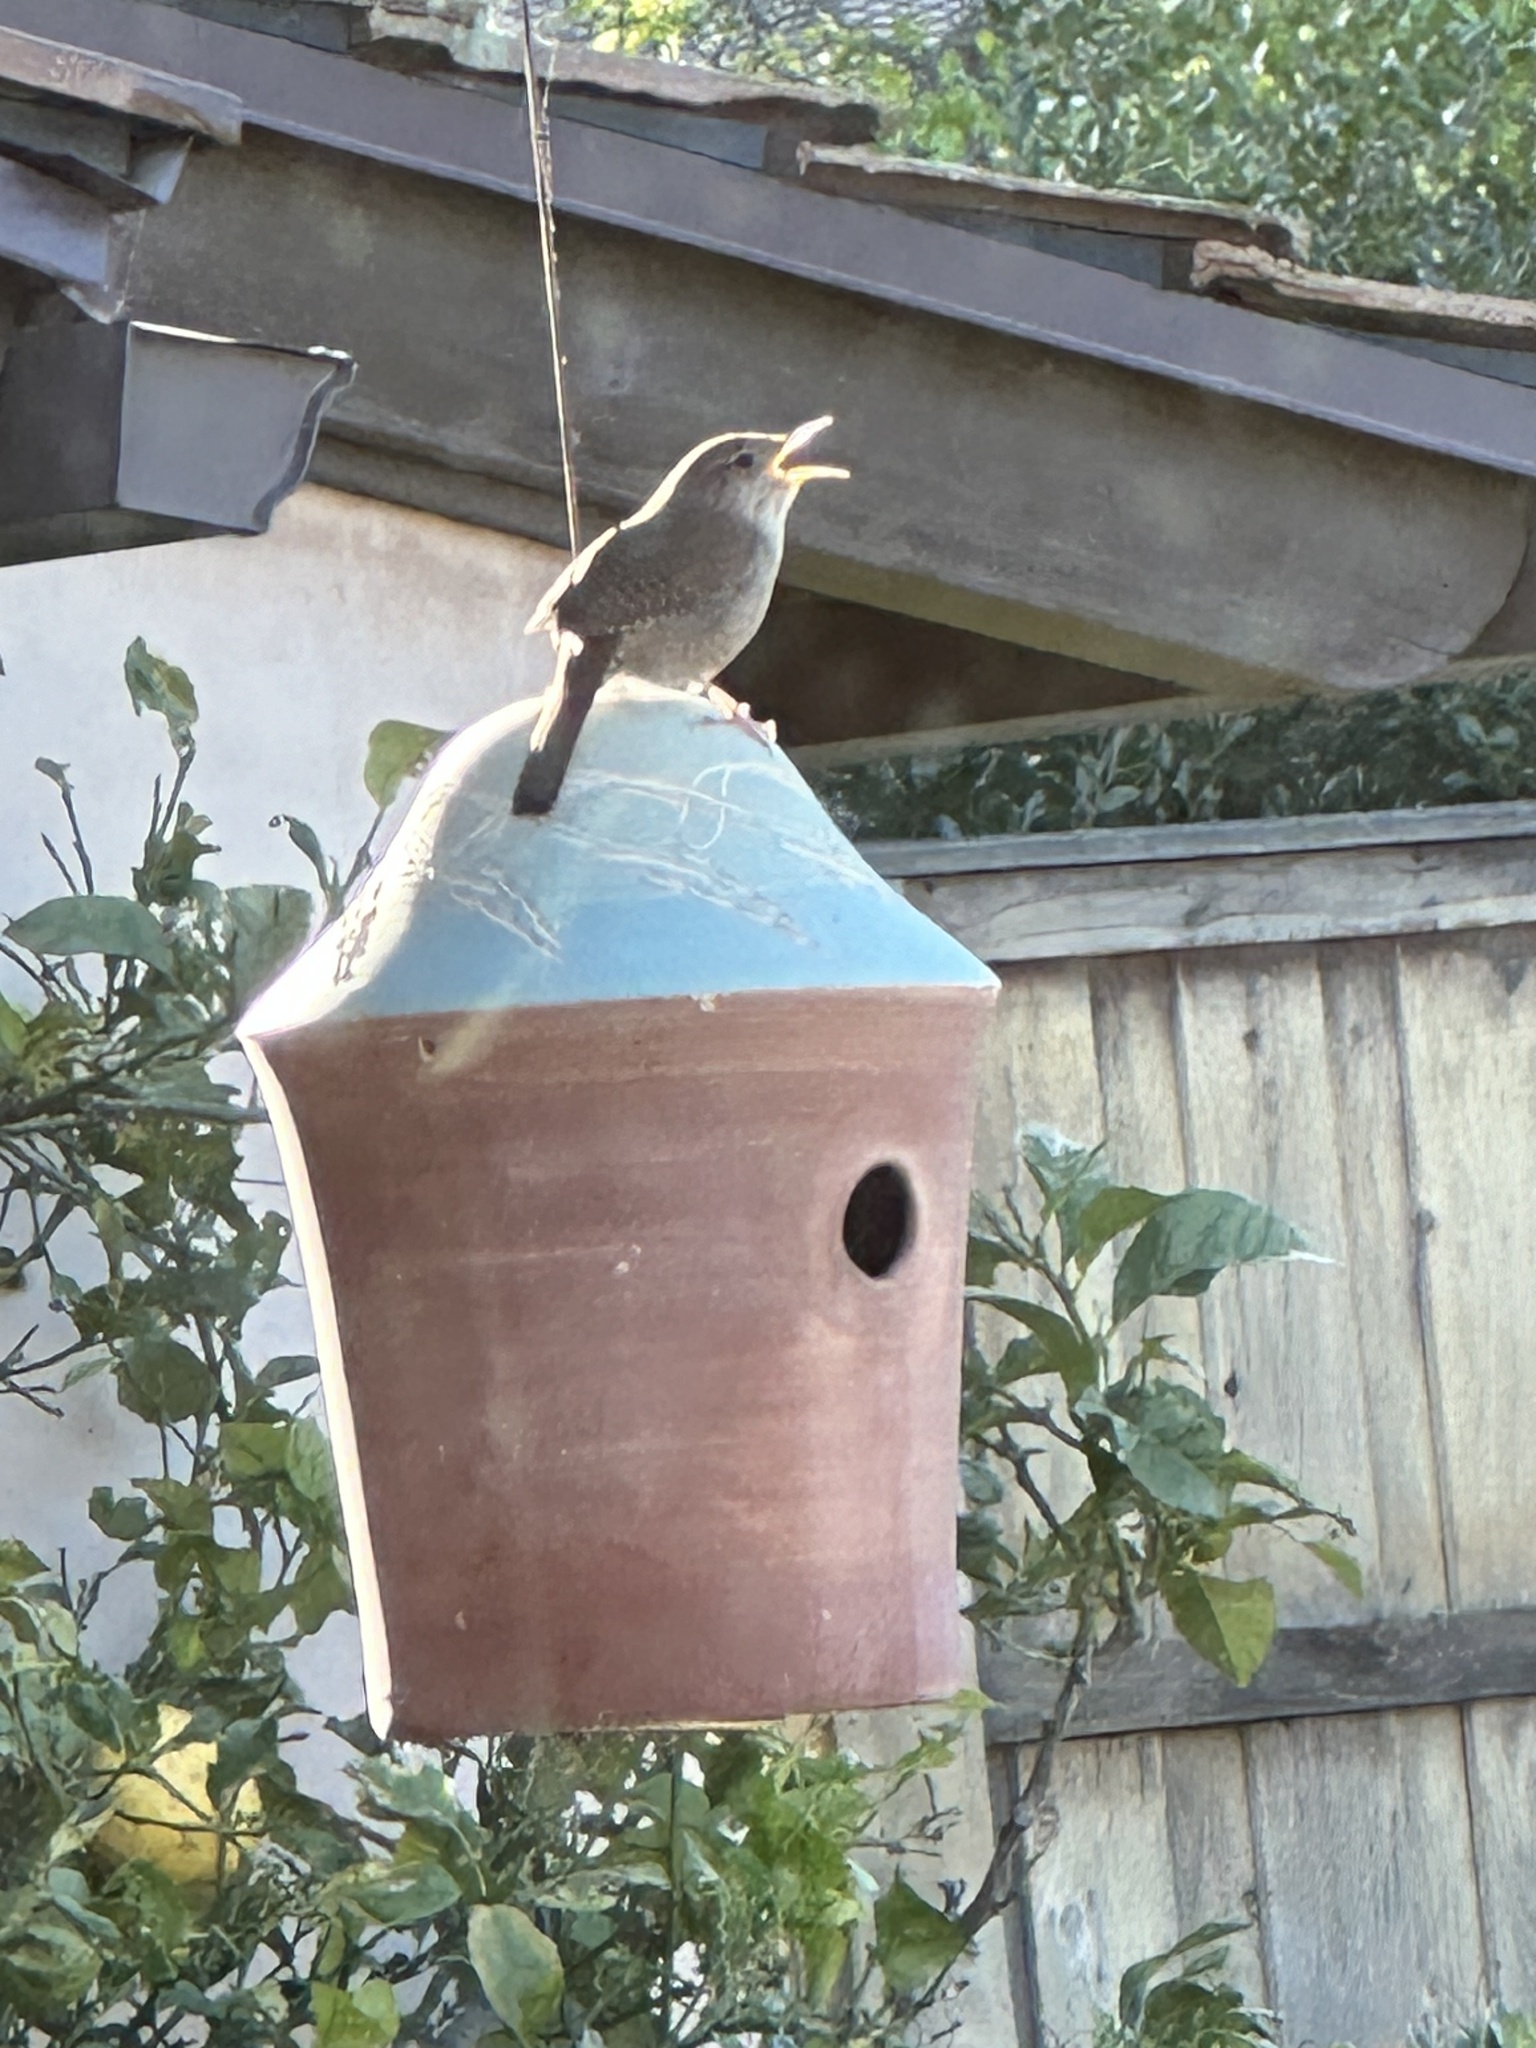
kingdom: Animalia
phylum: Chordata
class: Aves
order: Passeriformes
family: Troglodytidae
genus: Troglodytes
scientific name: Troglodytes aedon
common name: House wren
